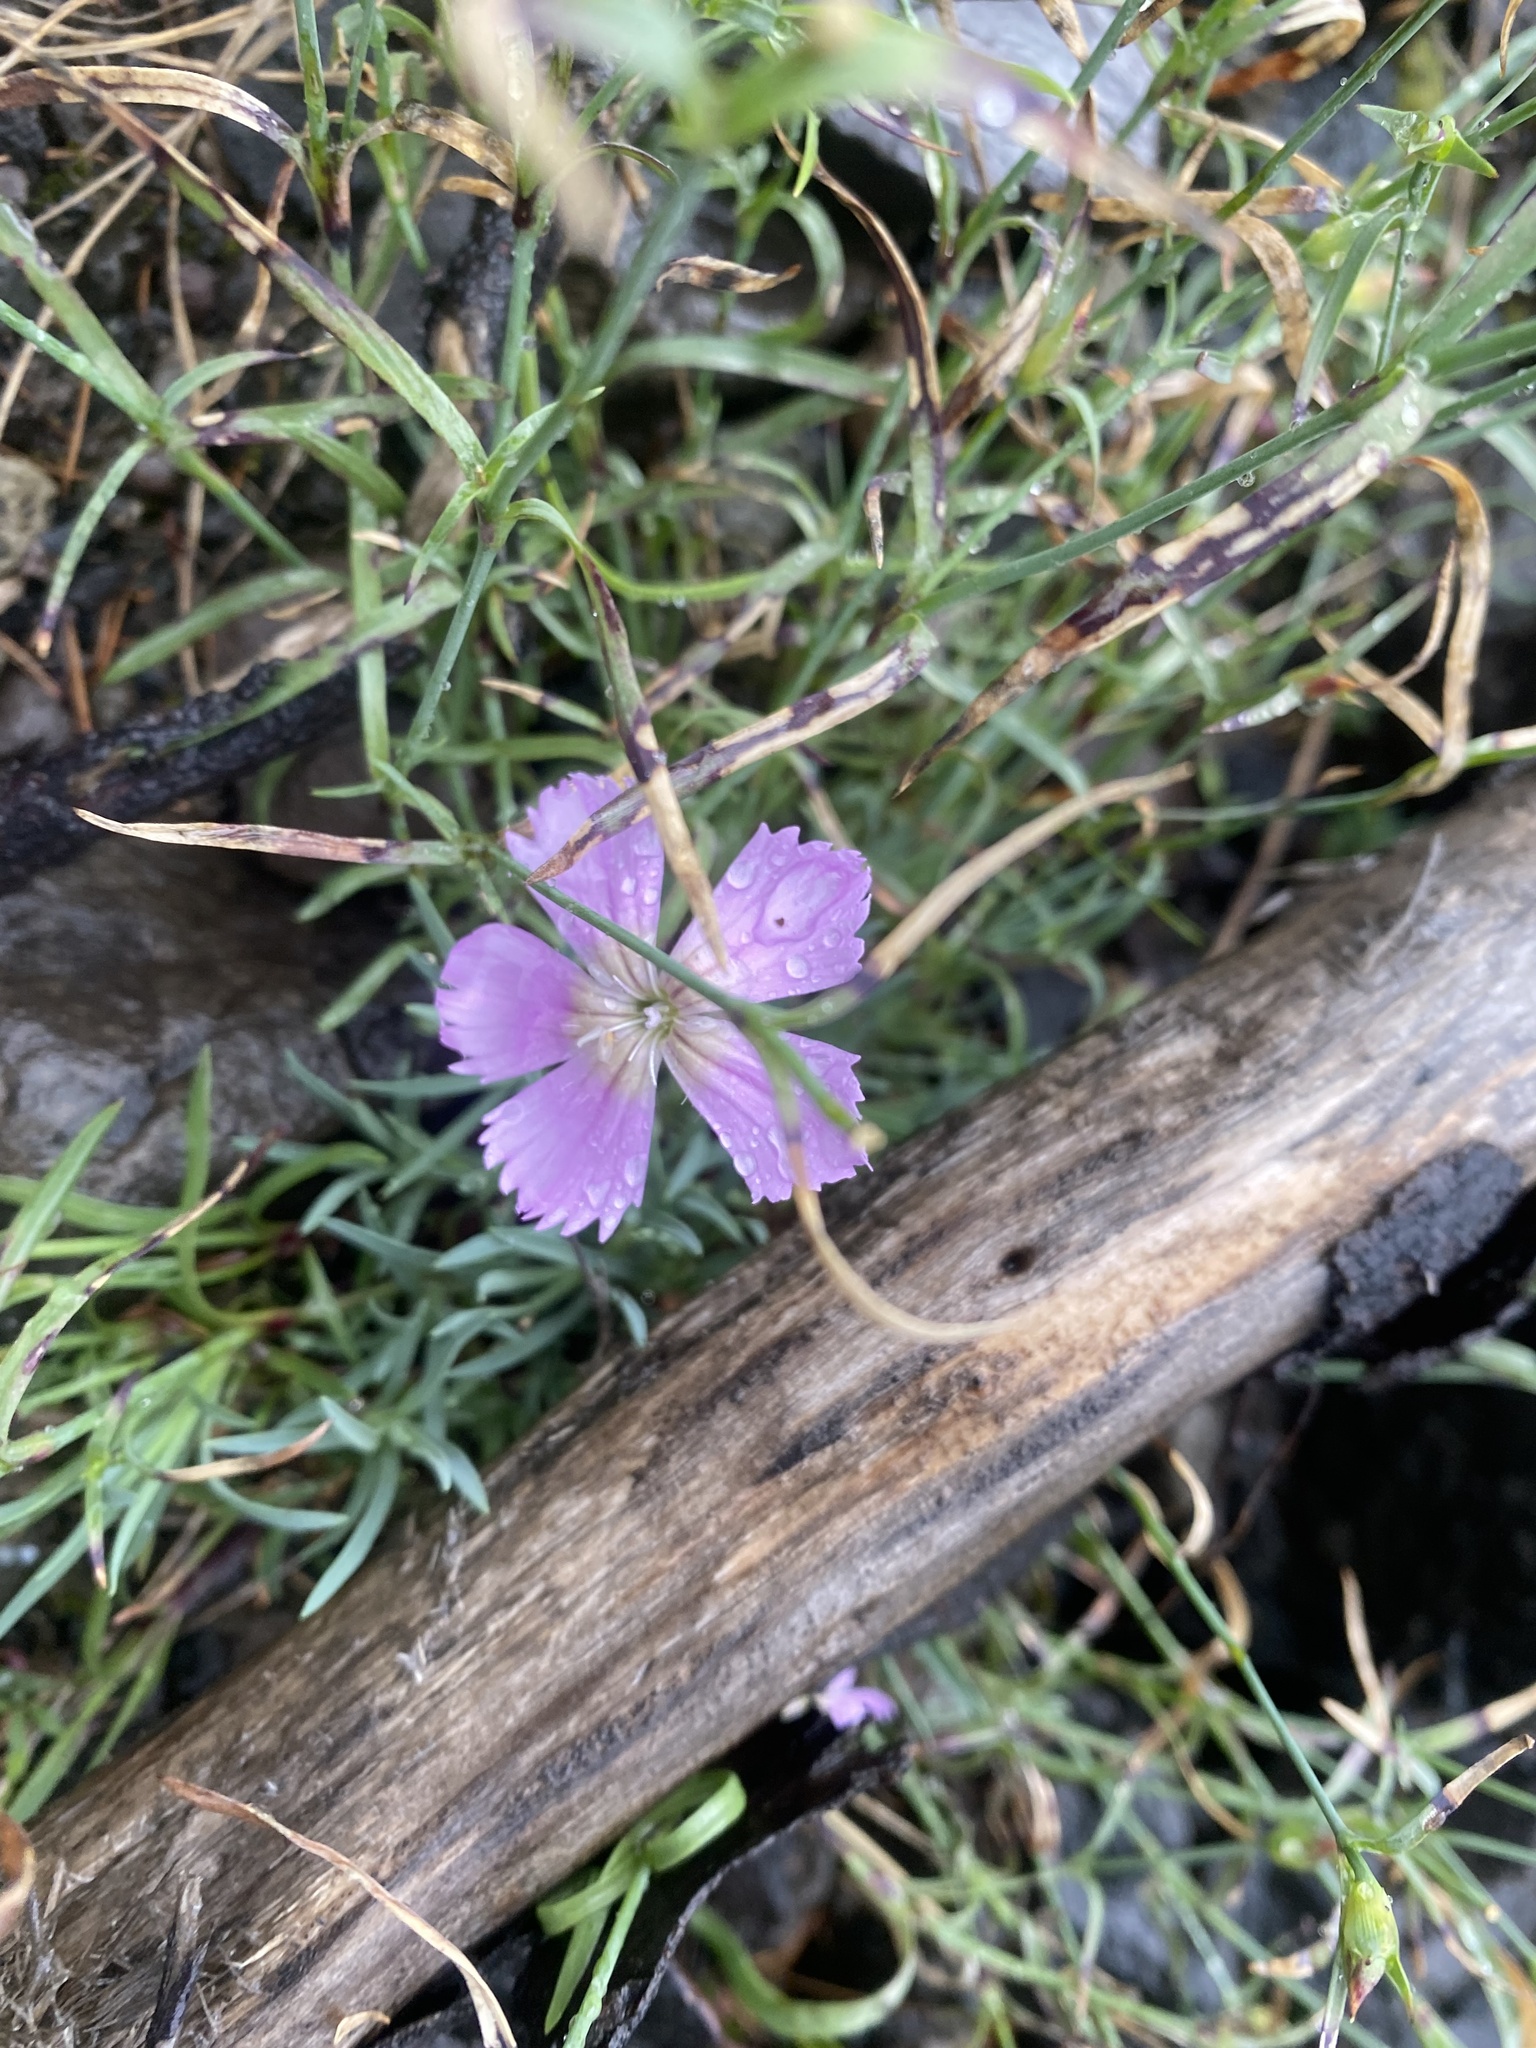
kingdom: Plantae
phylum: Tracheophyta
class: Magnoliopsida
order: Caryophyllales
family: Caryophyllaceae
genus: Dianthus
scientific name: Dianthus repens
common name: Northern pink
